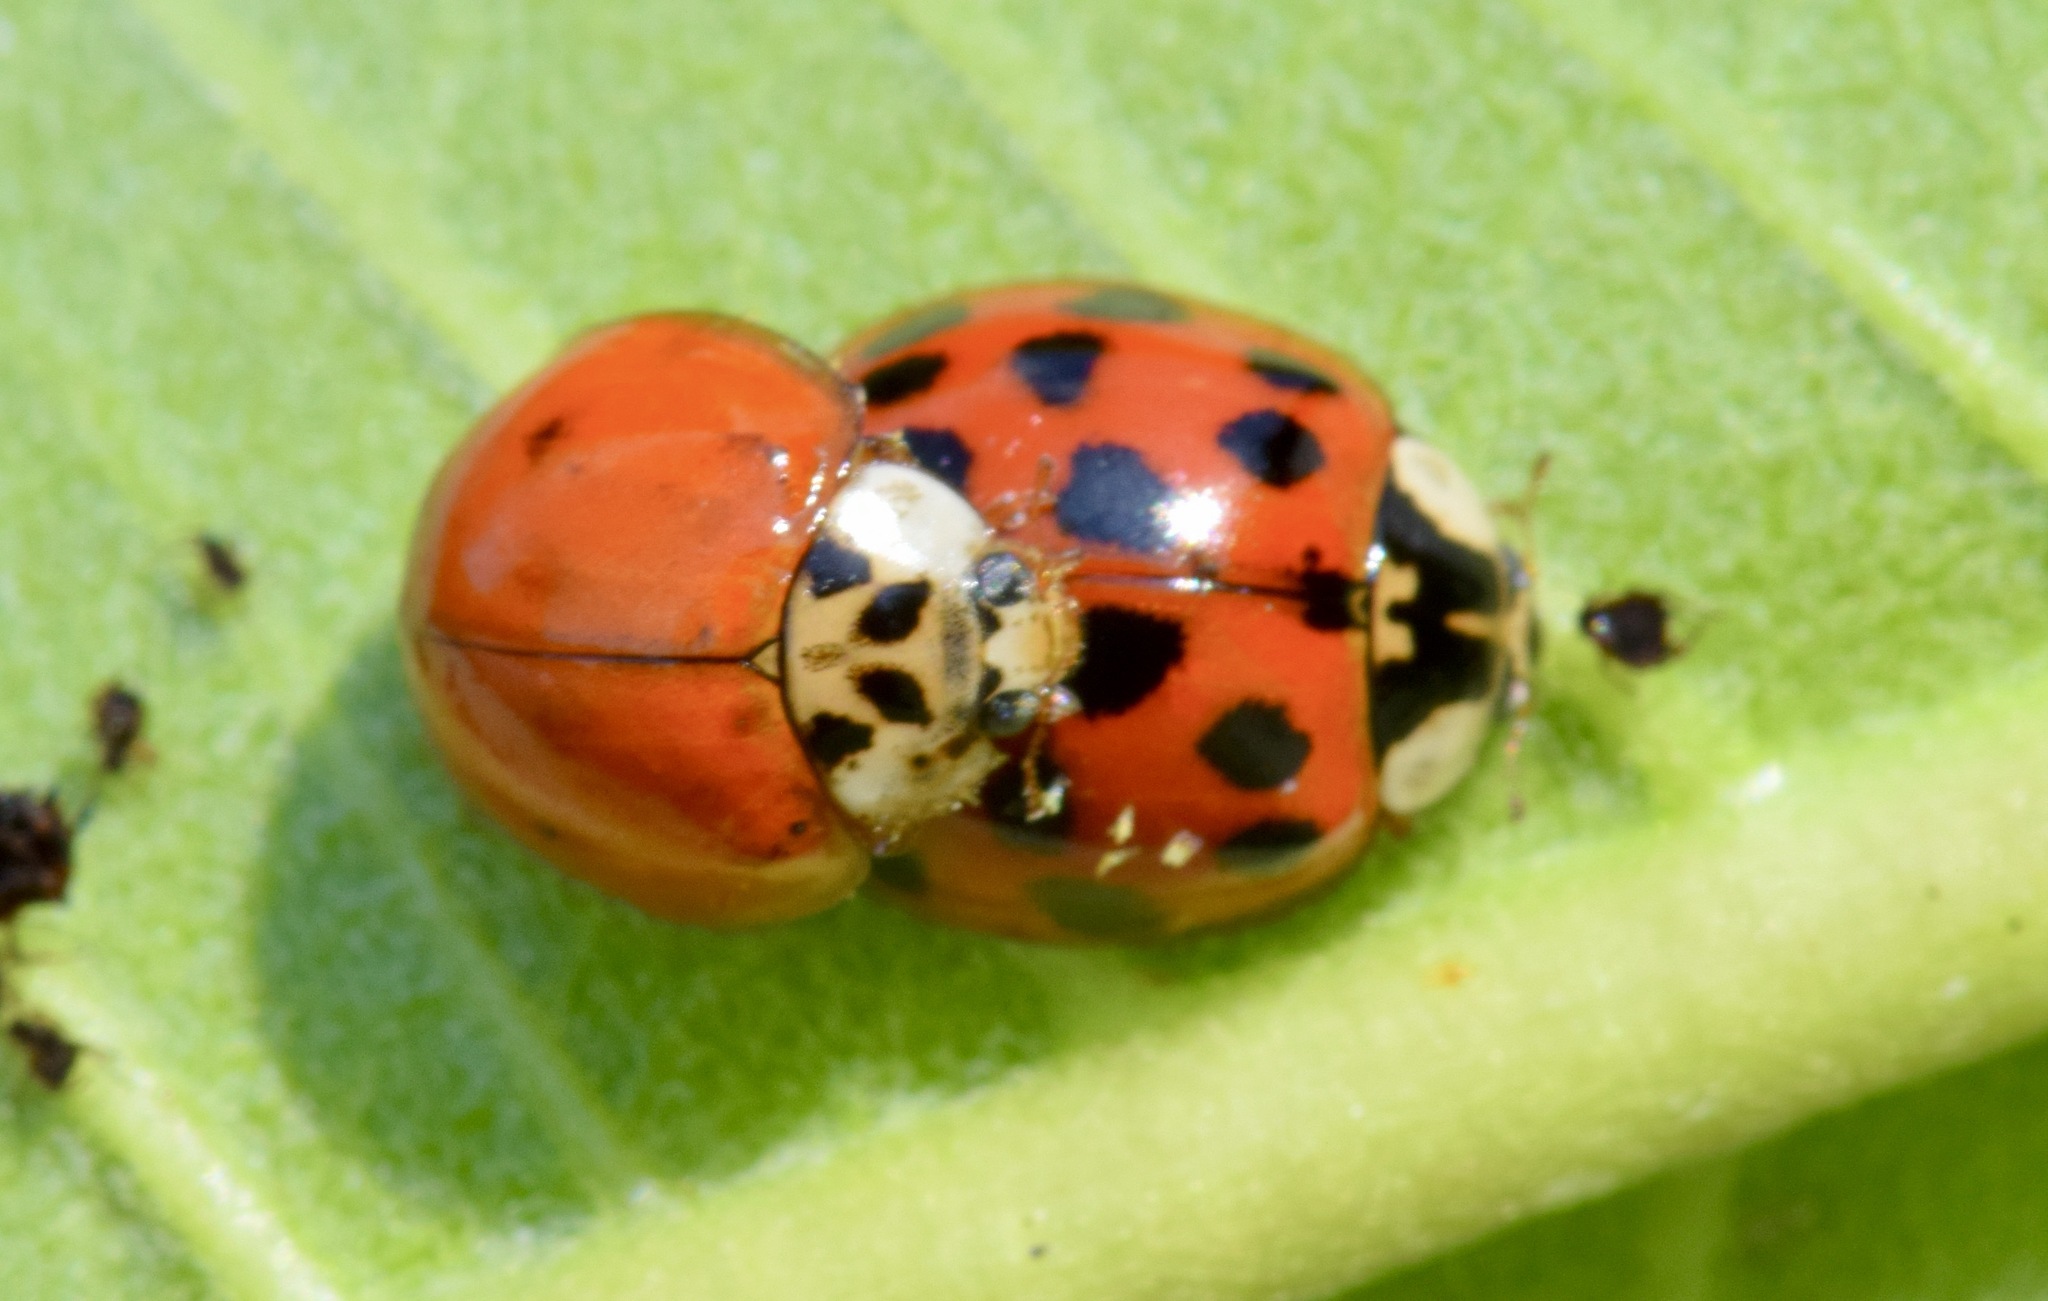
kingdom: Animalia
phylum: Arthropoda
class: Insecta
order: Coleoptera
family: Coccinellidae
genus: Harmonia
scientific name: Harmonia axyridis
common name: Harlequin ladybird
